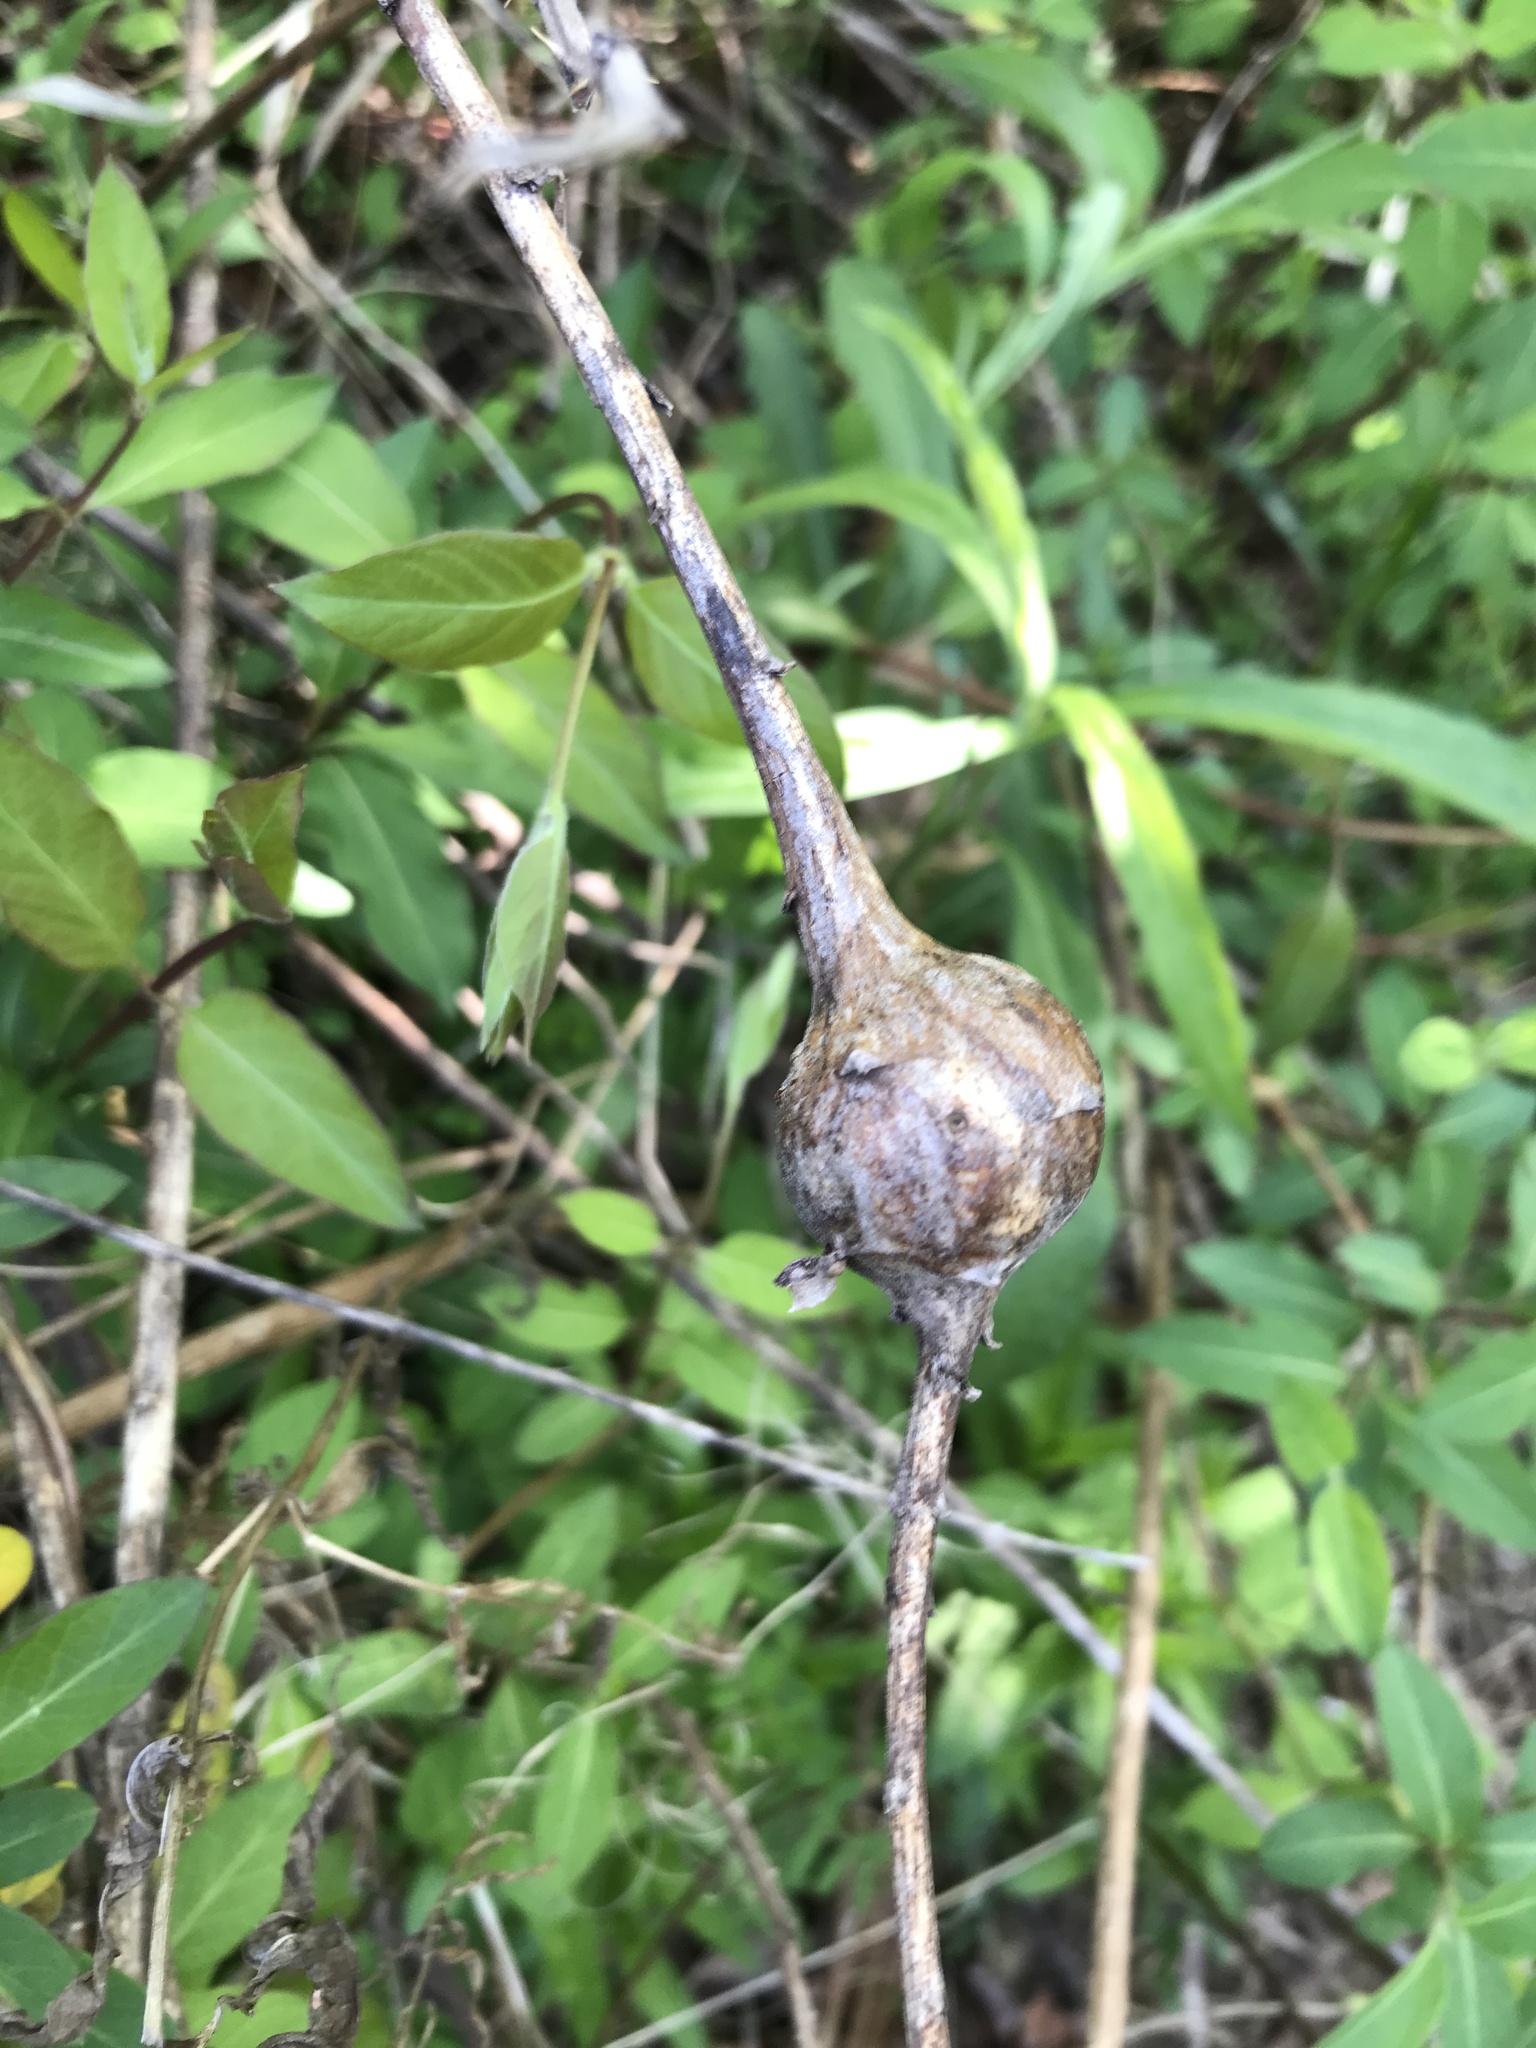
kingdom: Animalia
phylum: Arthropoda
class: Insecta
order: Diptera
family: Tephritidae
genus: Eurosta
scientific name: Eurosta solidaginis
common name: Goldenrod gall fly
